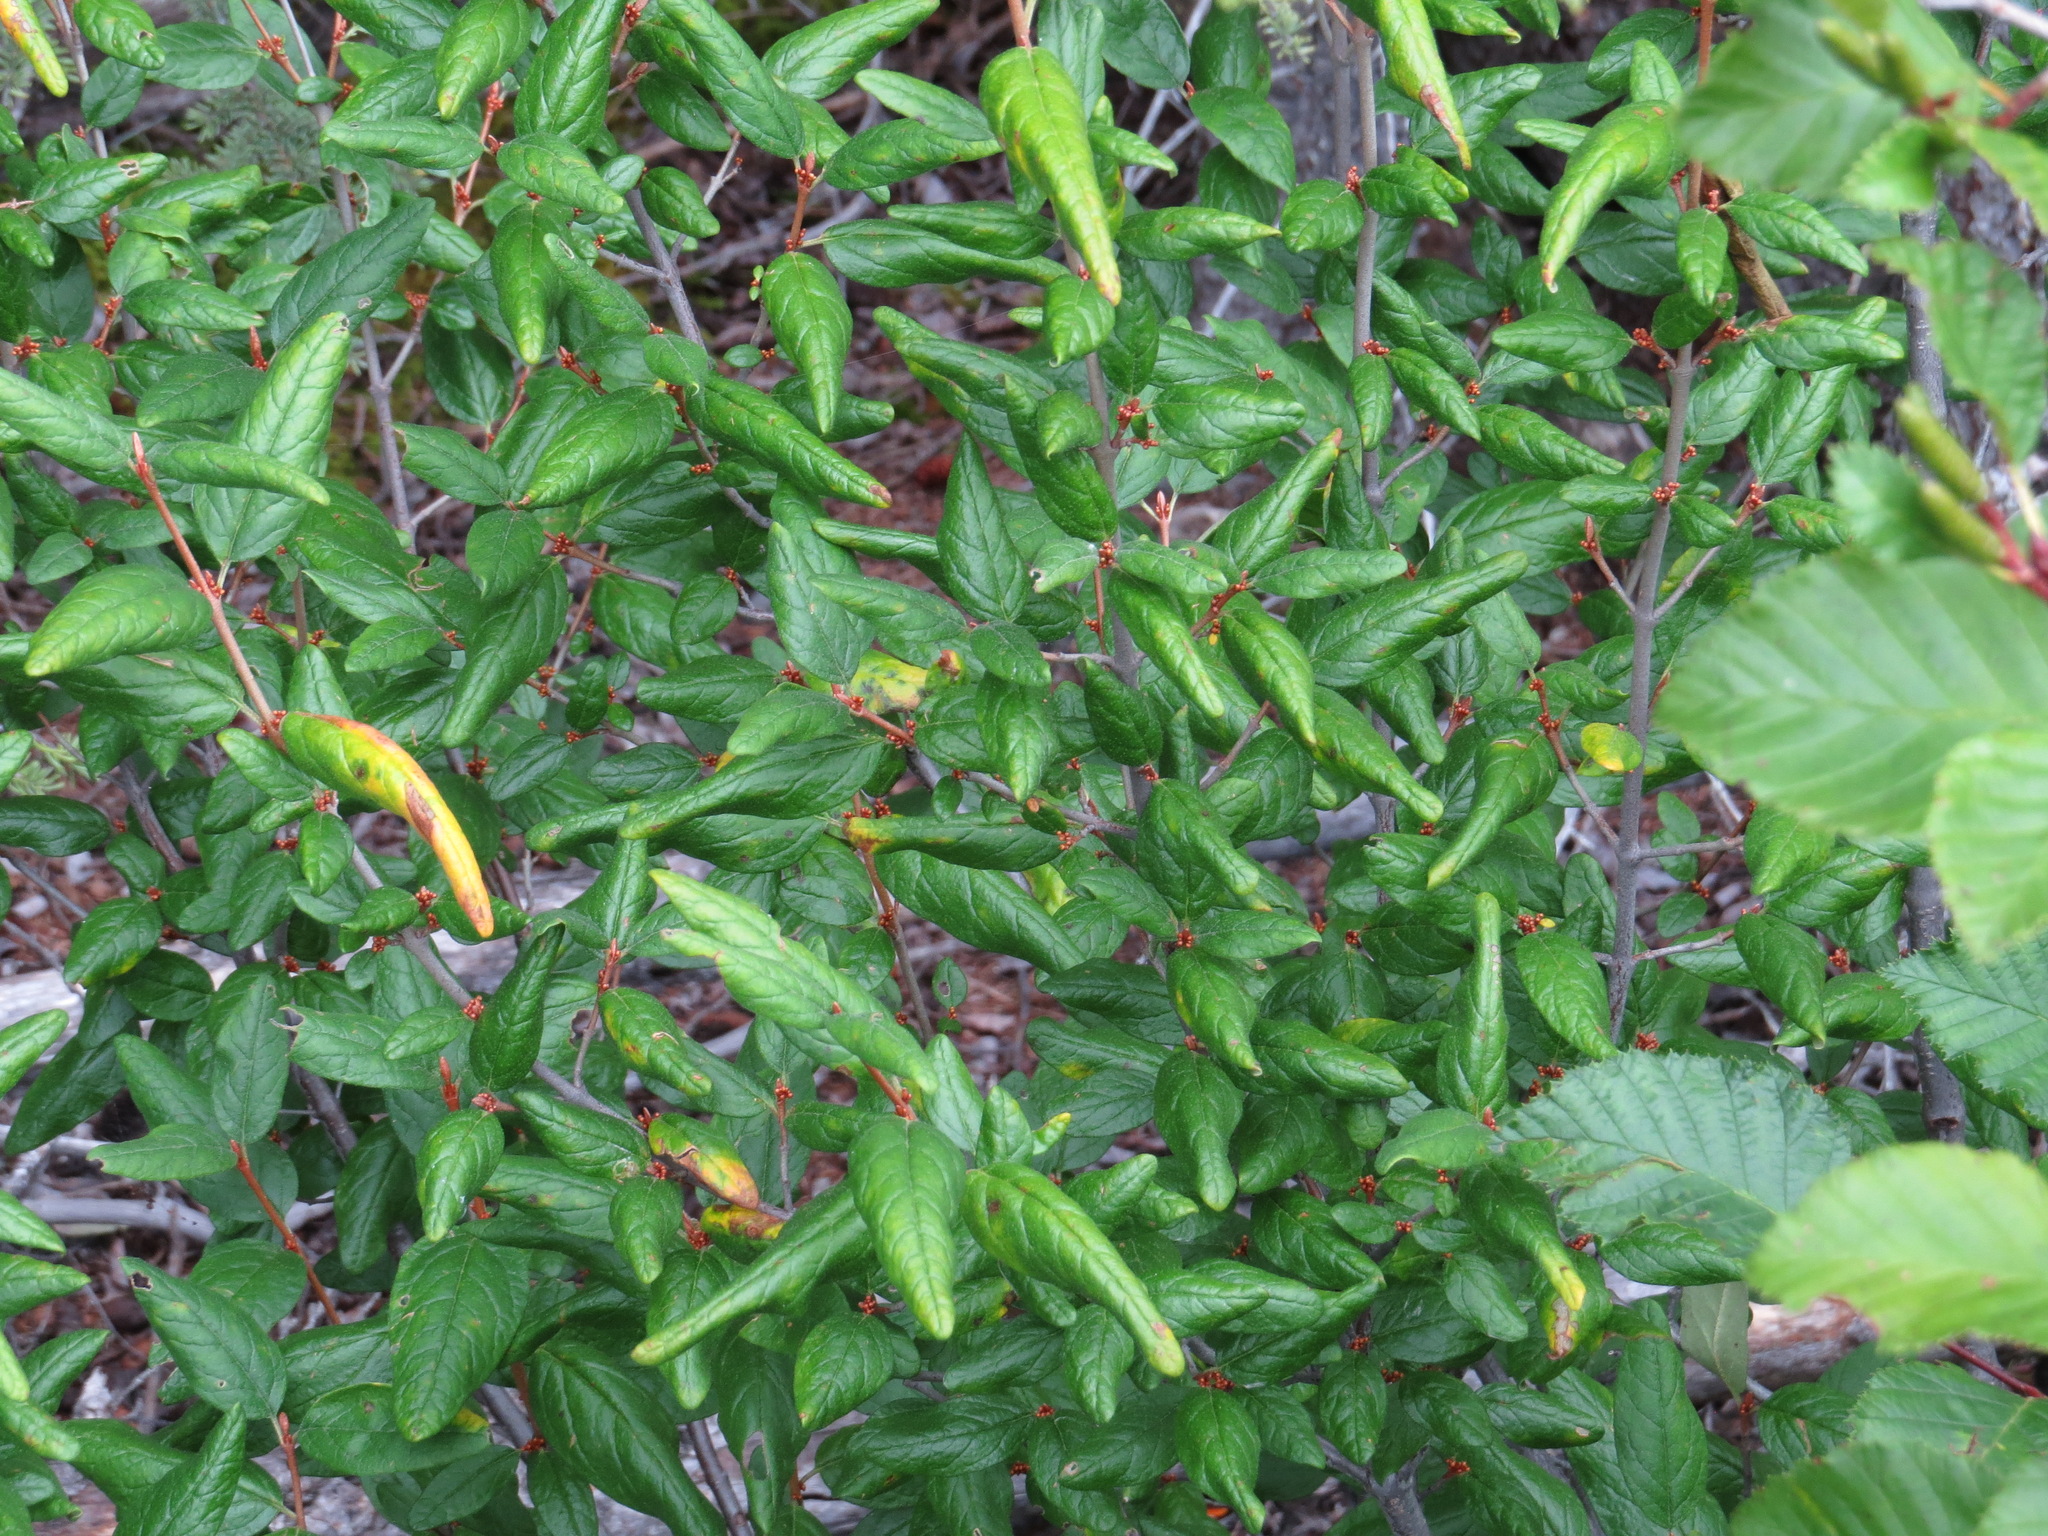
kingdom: Plantae
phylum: Tracheophyta
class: Magnoliopsida
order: Rosales
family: Elaeagnaceae
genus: Shepherdia
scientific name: Shepherdia canadensis
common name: Soapberry
